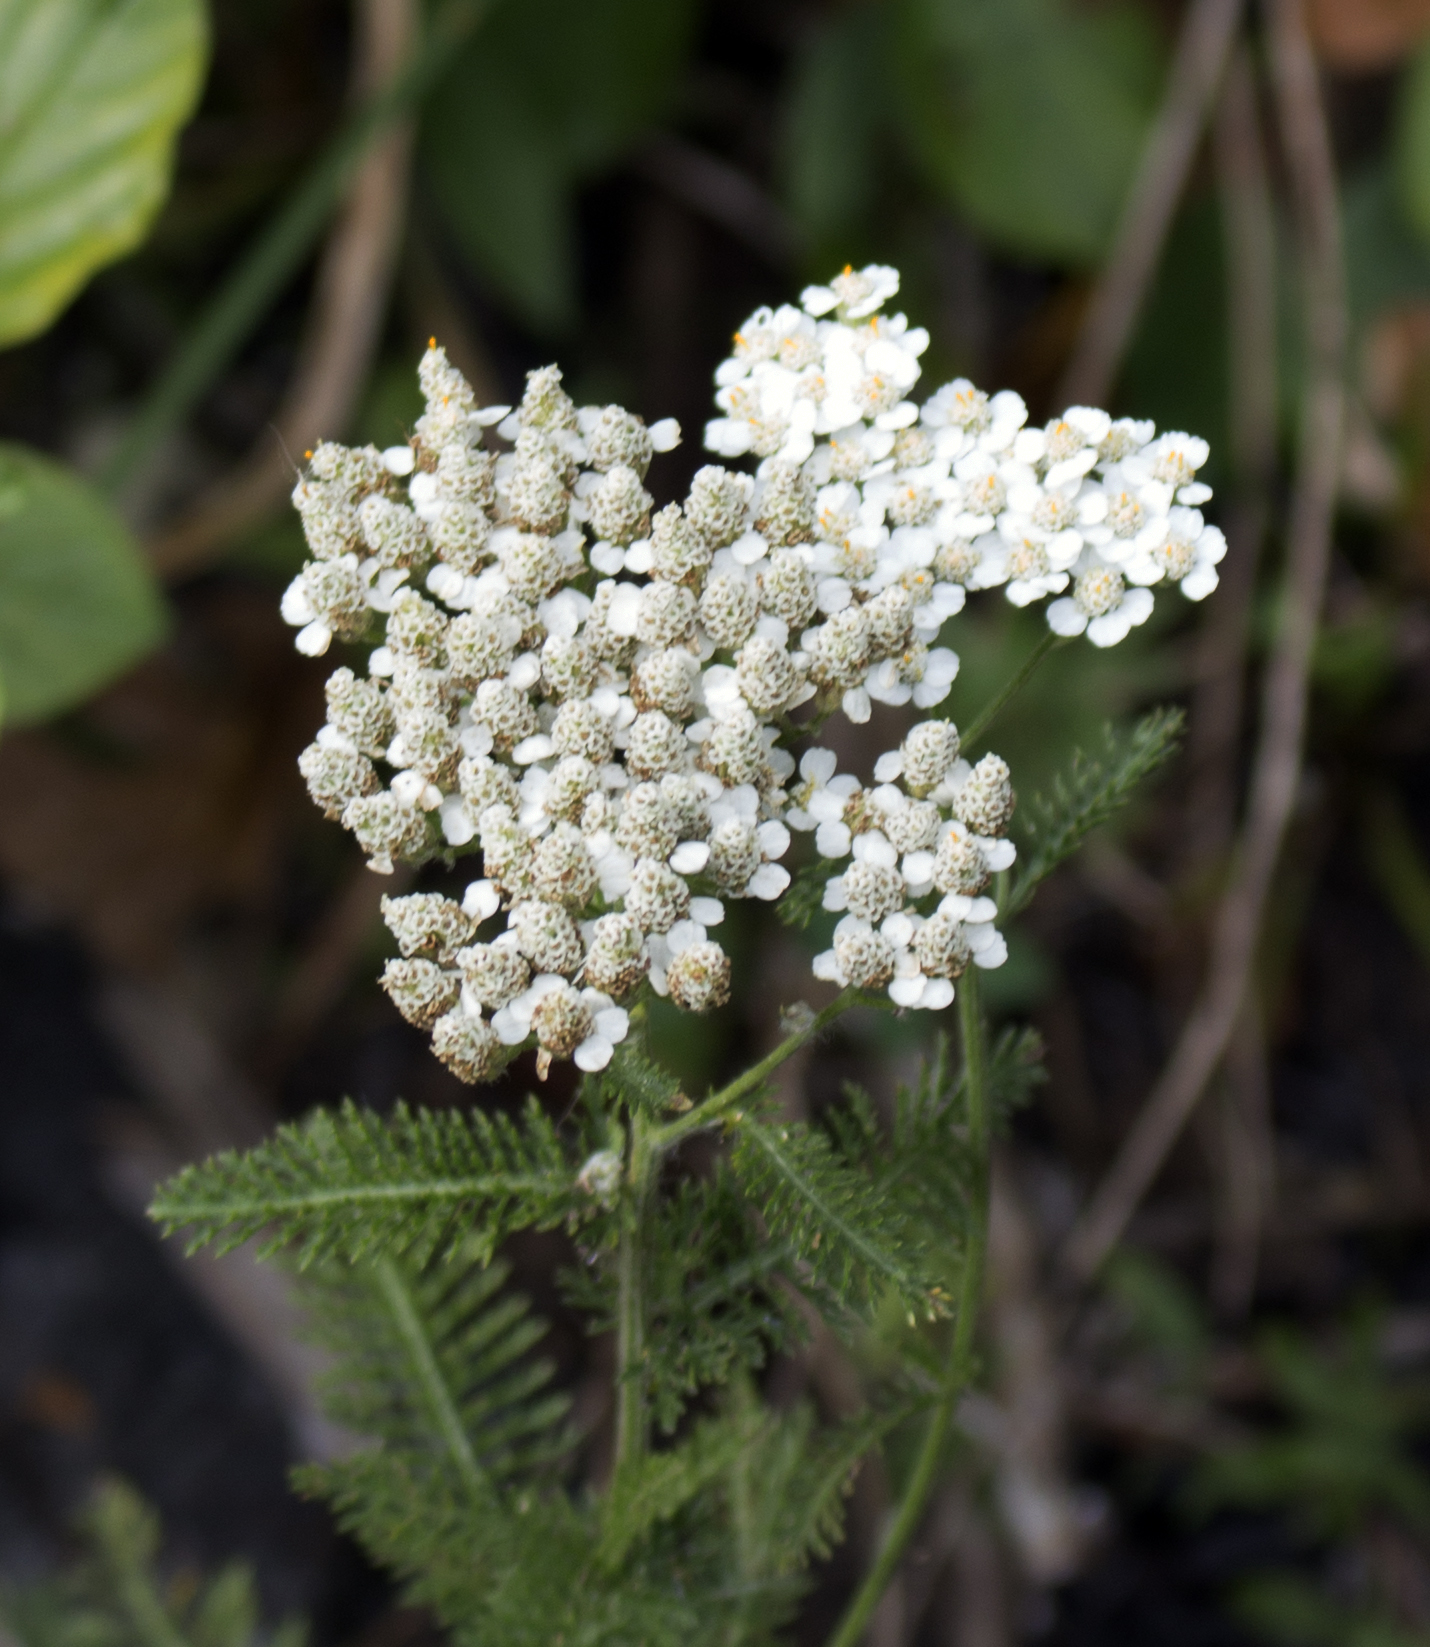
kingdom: Plantae
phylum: Tracheophyta
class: Magnoliopsida
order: Asterales
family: Asteraceae
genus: Achillea
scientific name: Achillea millefolium
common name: Yarrow
